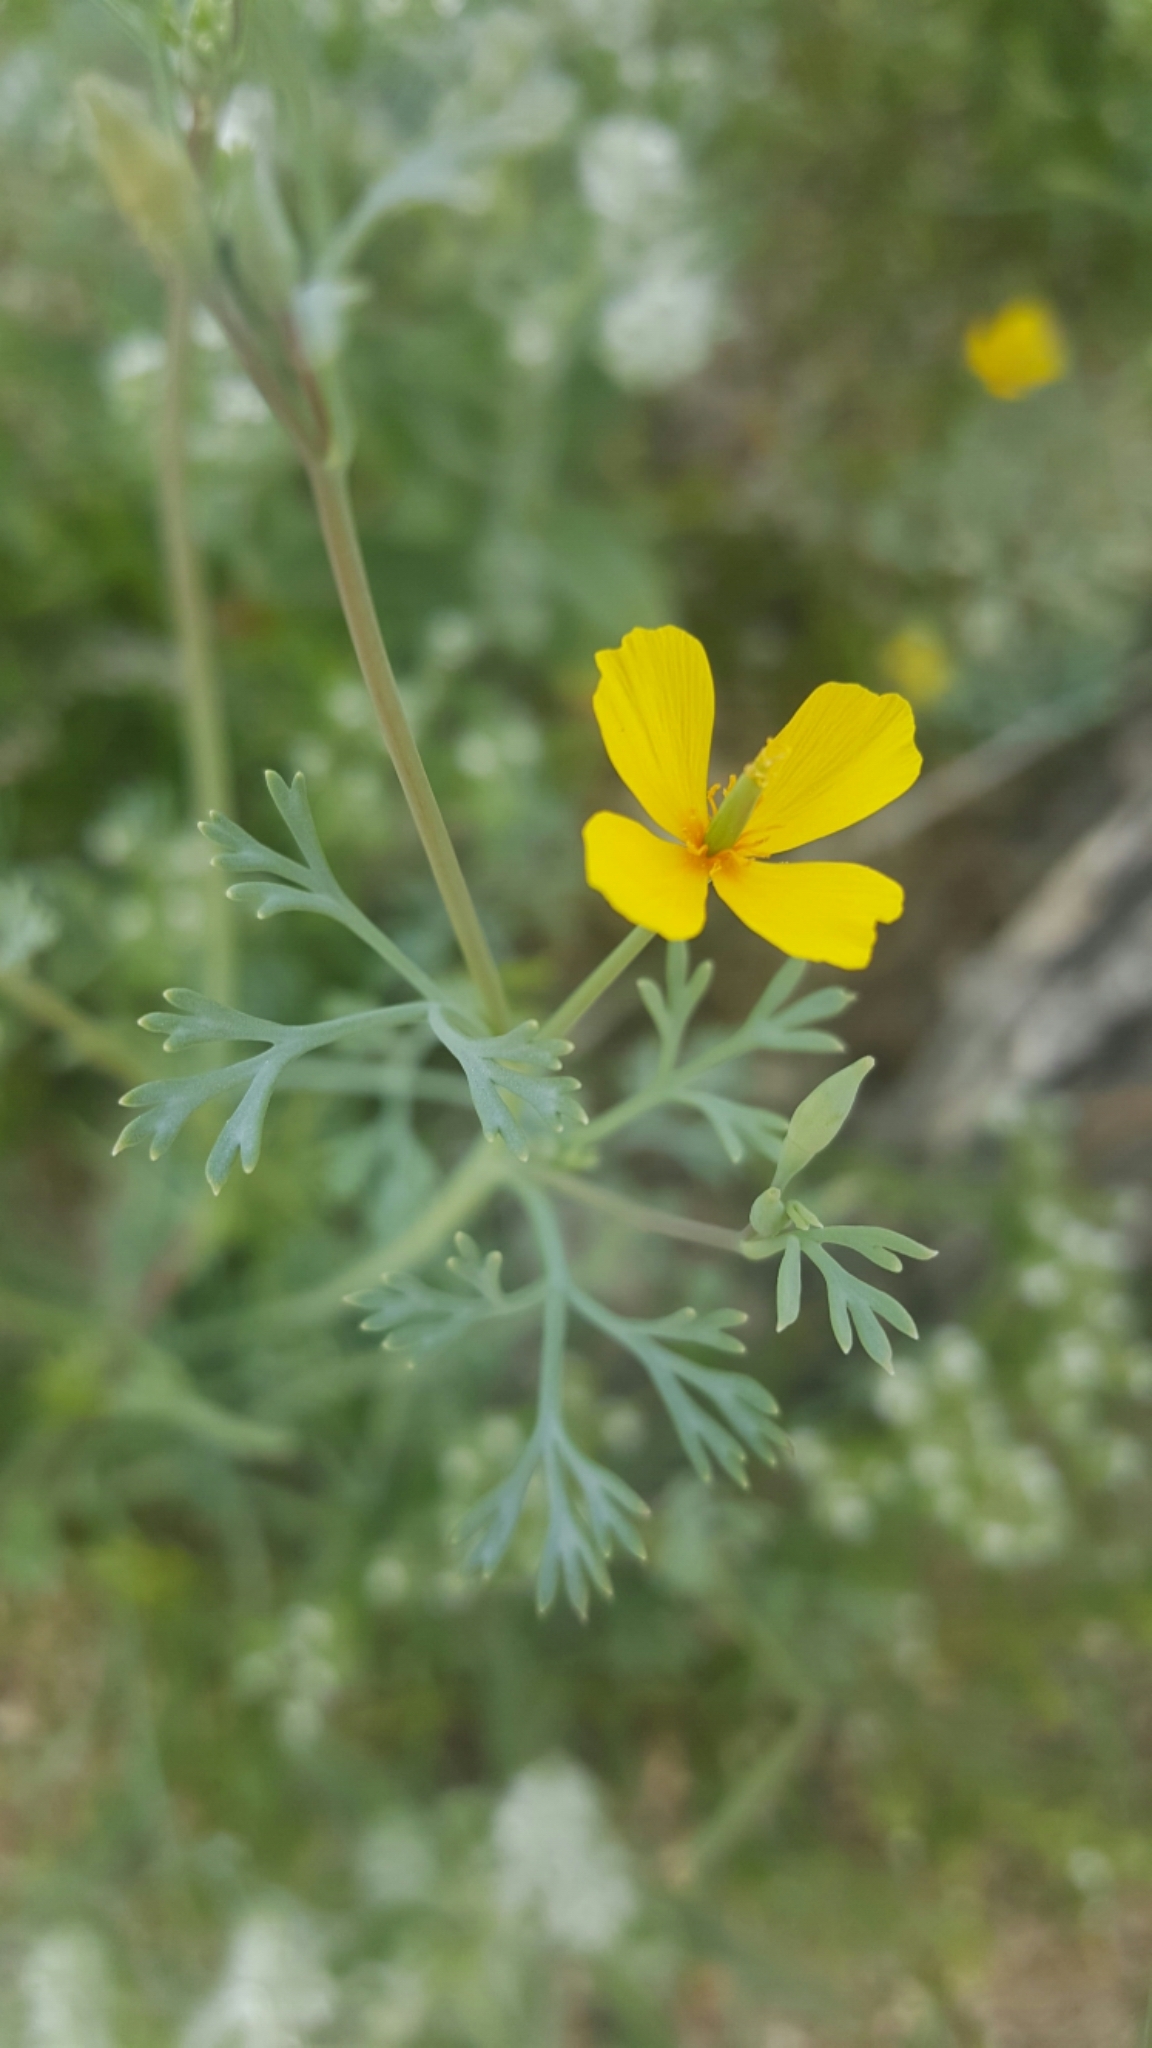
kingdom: Plantae
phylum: Tracheophyta
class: Magnoliopsida
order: Ranunculales
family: Papaveraceae
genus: Eschscholzia
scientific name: Eschscholzia minutiflora
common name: Small-flower california-poppy
